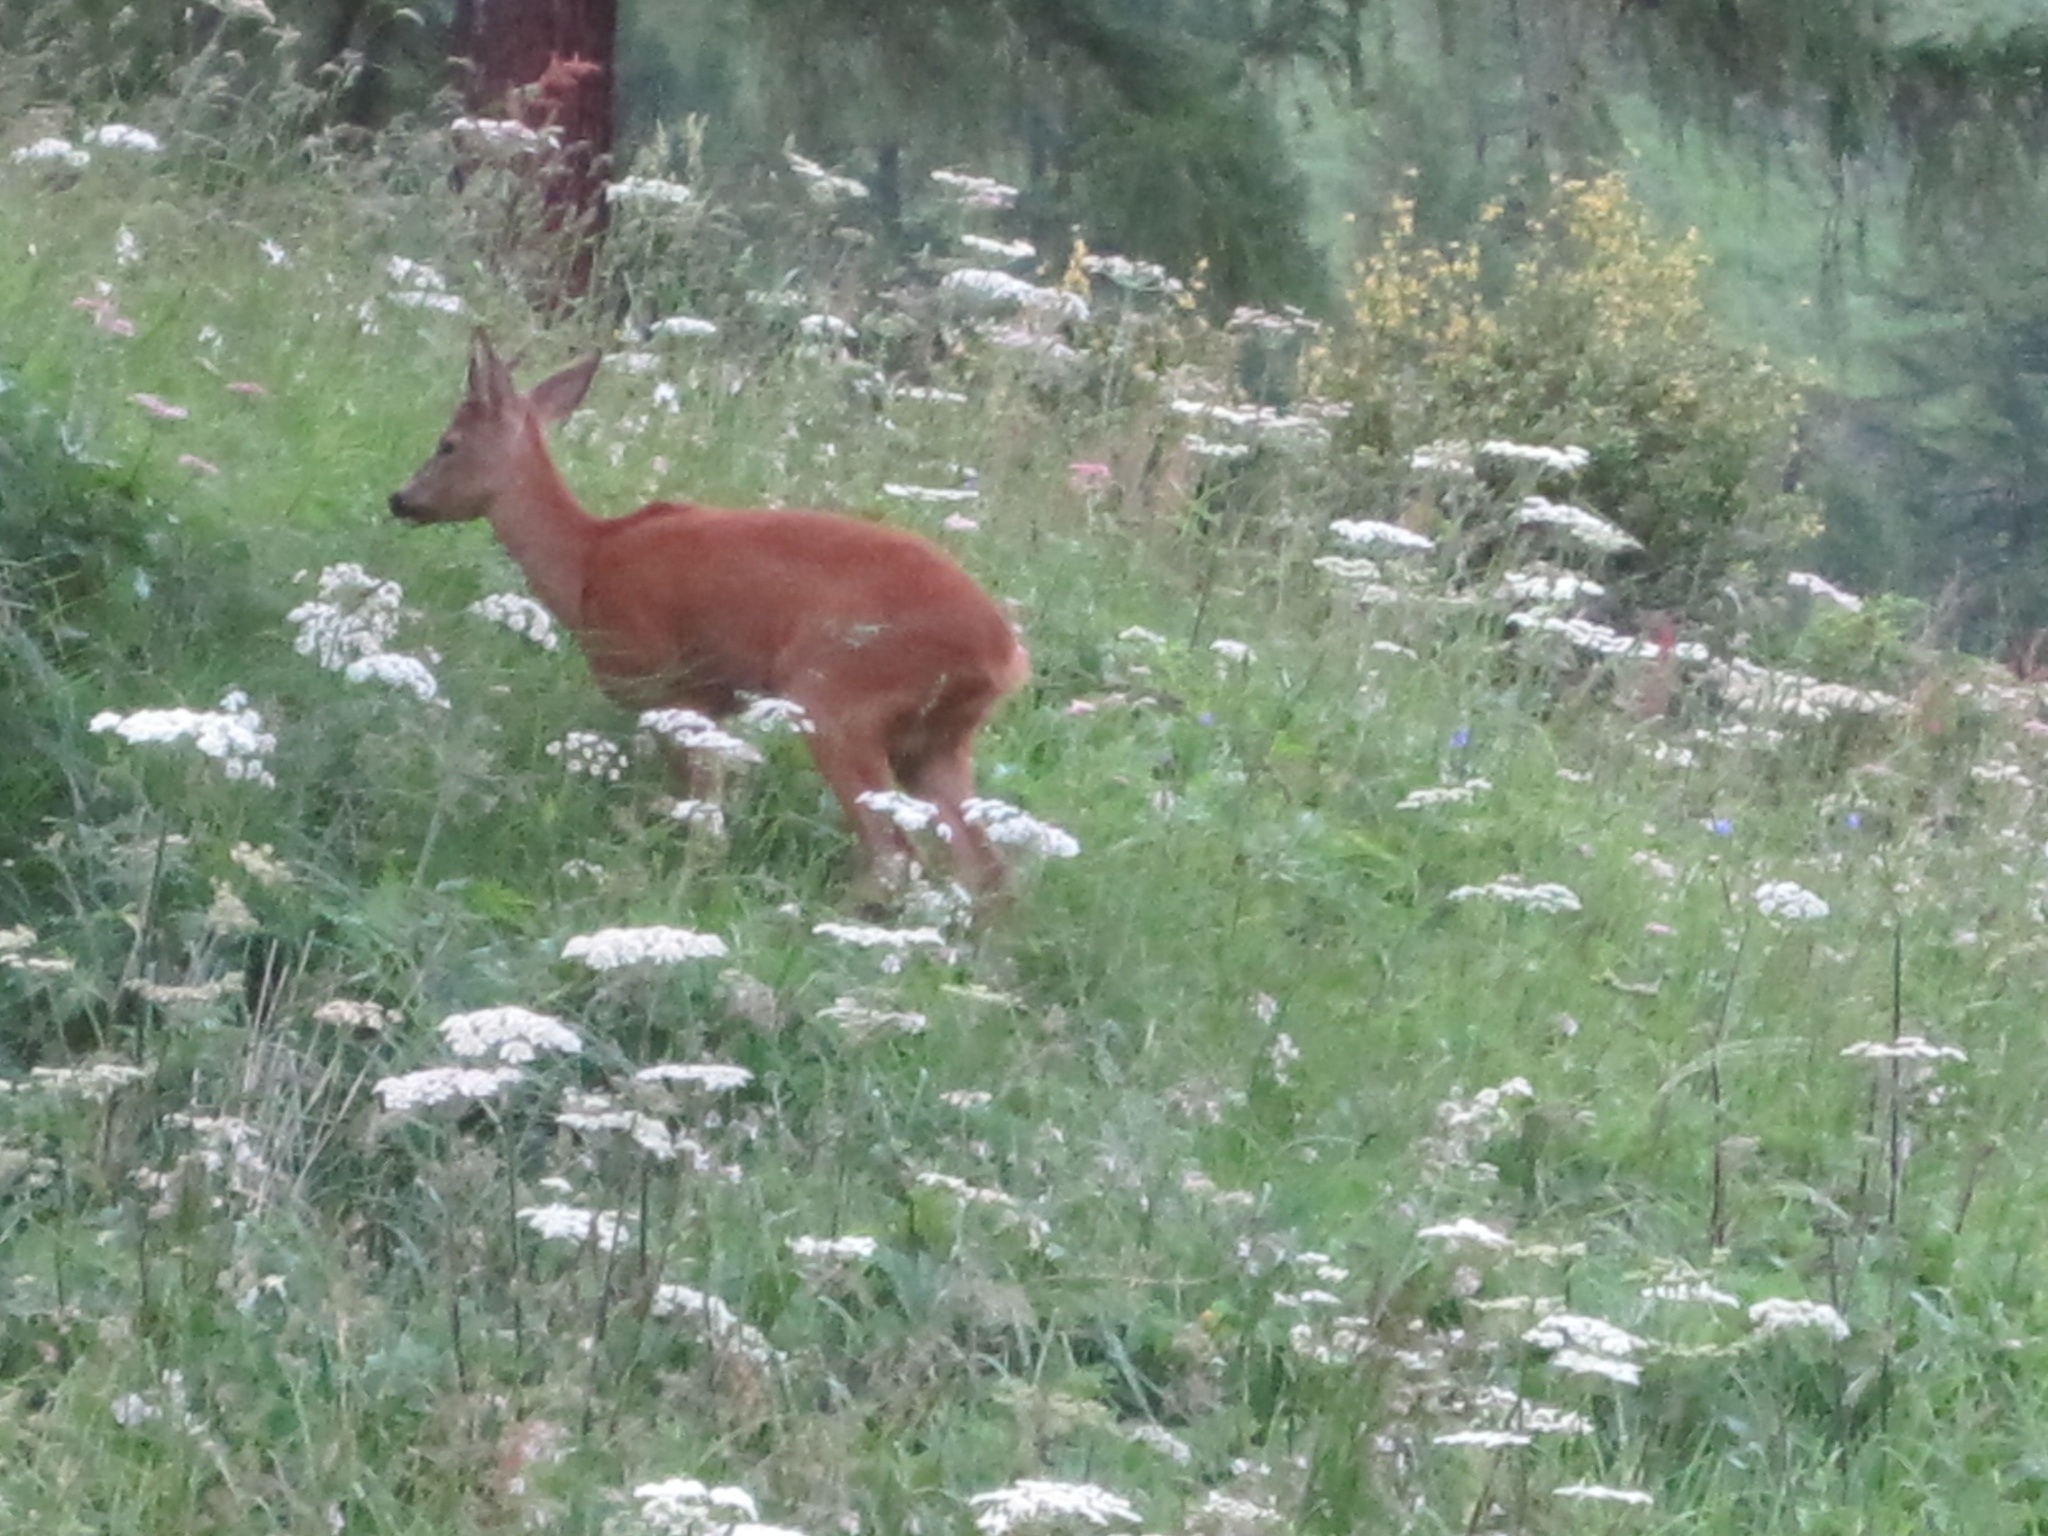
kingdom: Animalia
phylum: Chordata
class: Mammalia
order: Artiodactyla
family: Cervidae
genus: Capreolus
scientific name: Capreolus capreolus
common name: Western roe deer
